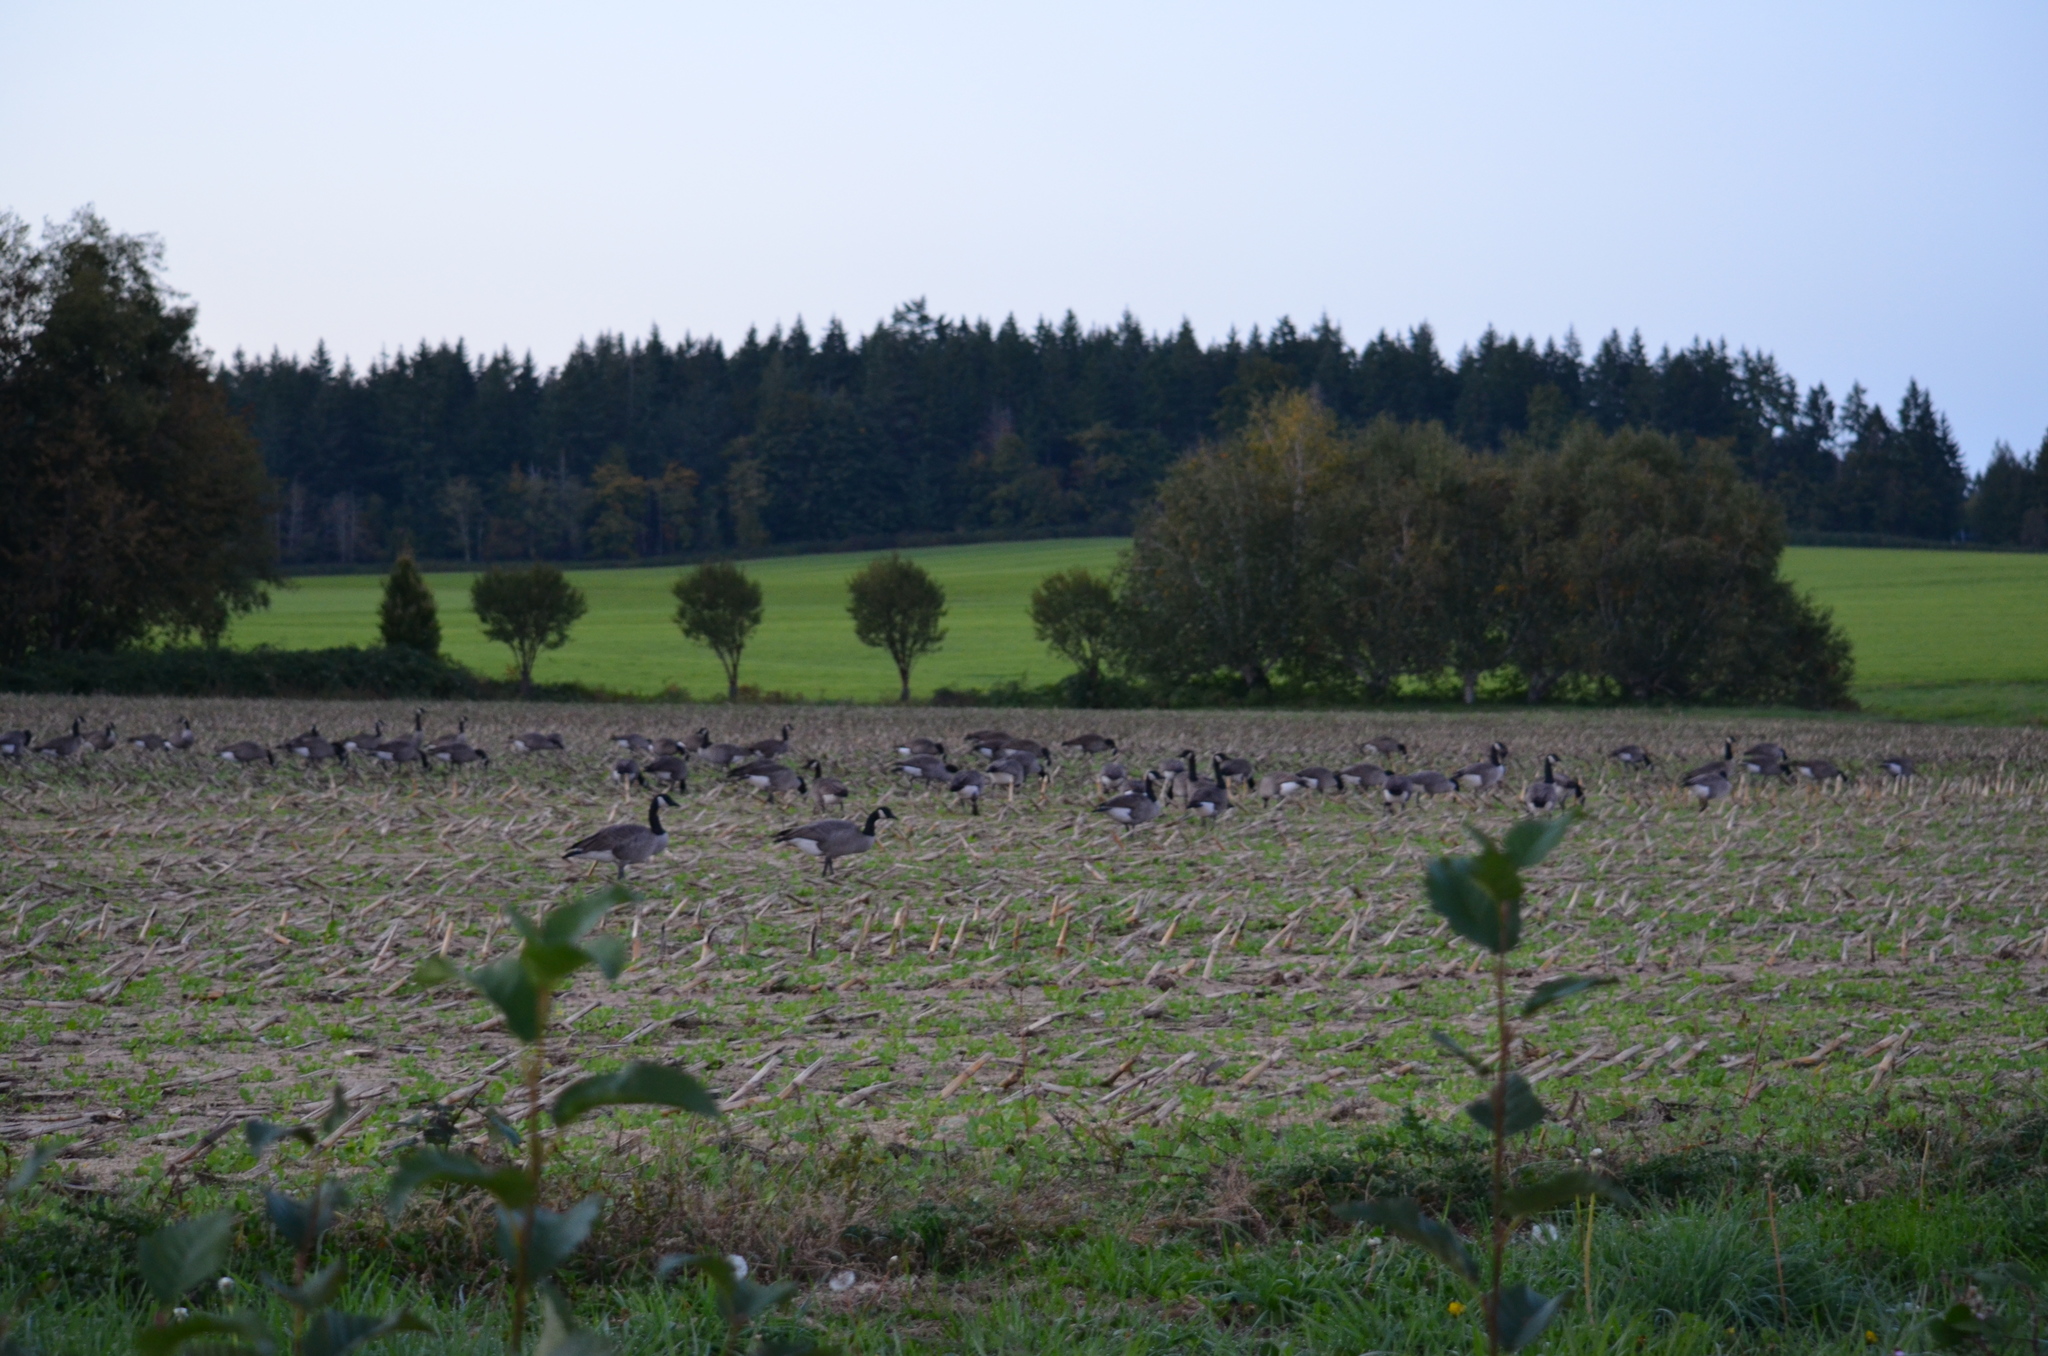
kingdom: Animalia
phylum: Chordata
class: Aves
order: Anseriformes
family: Anatidae
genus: Branta
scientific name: Branta canadensis
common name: Canada goose
